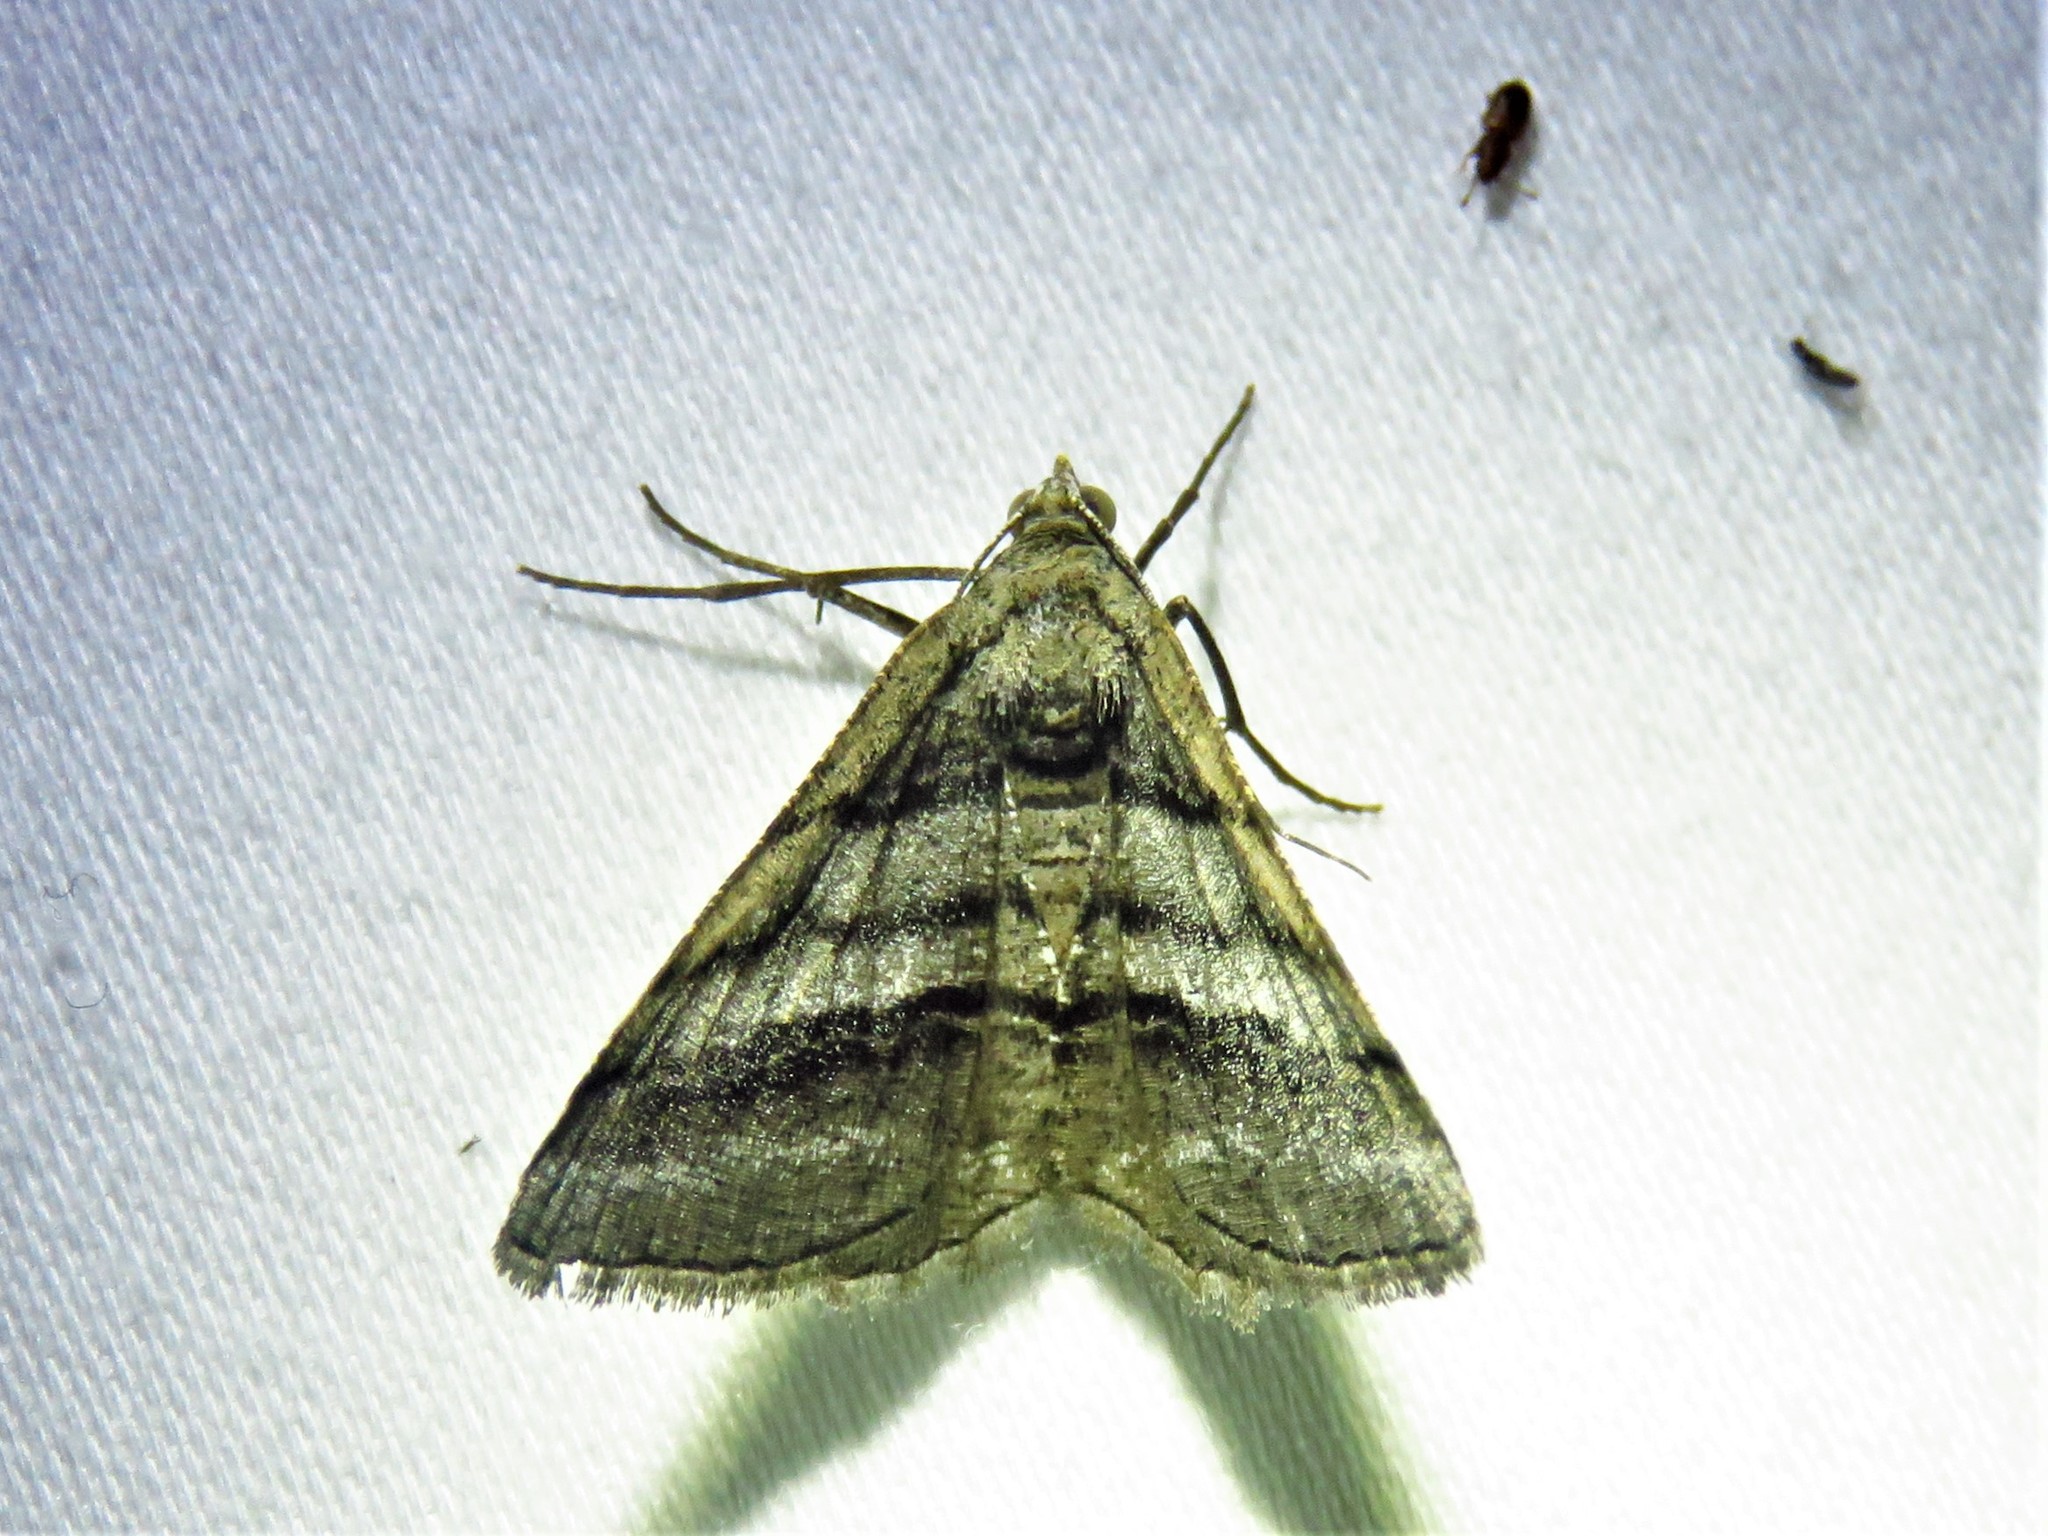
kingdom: Animalia
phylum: Arthropoda
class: Insecta
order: Lepidoptera
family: Geometridae
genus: Digrammia
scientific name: Digrammia atrofasciata
